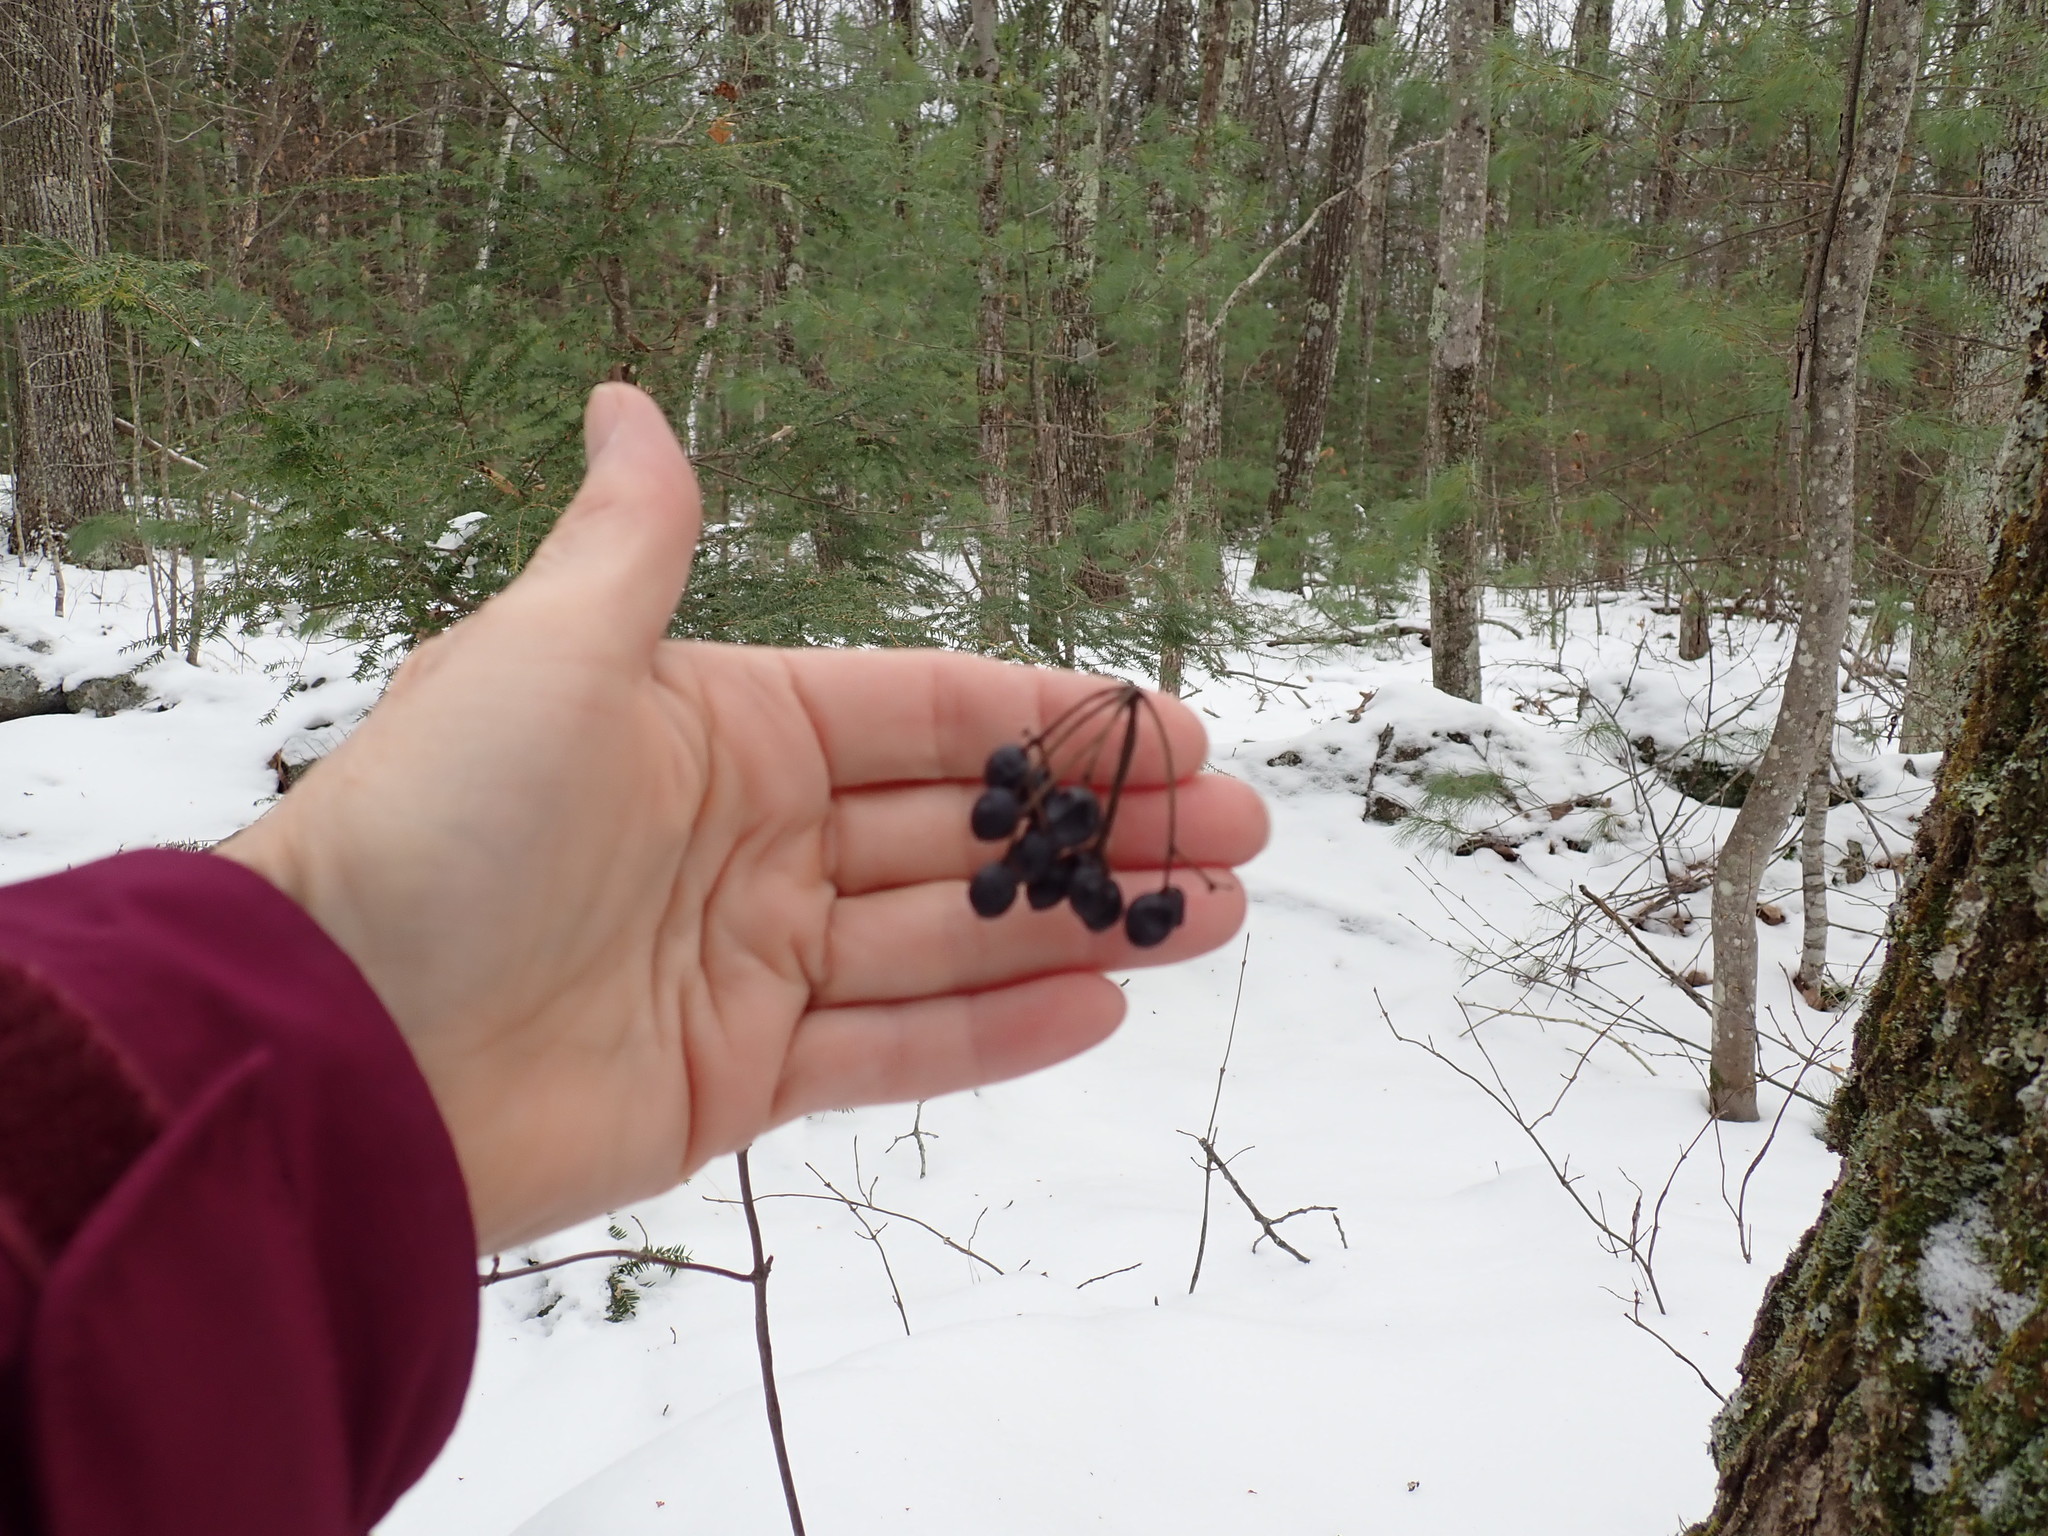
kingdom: Plantae
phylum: Tracheophyta
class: Magnoliopsida
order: Dipsacales
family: Viburnaceae
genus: Viburnum
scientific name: Viburnum acerifolium
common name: Dockmackie
